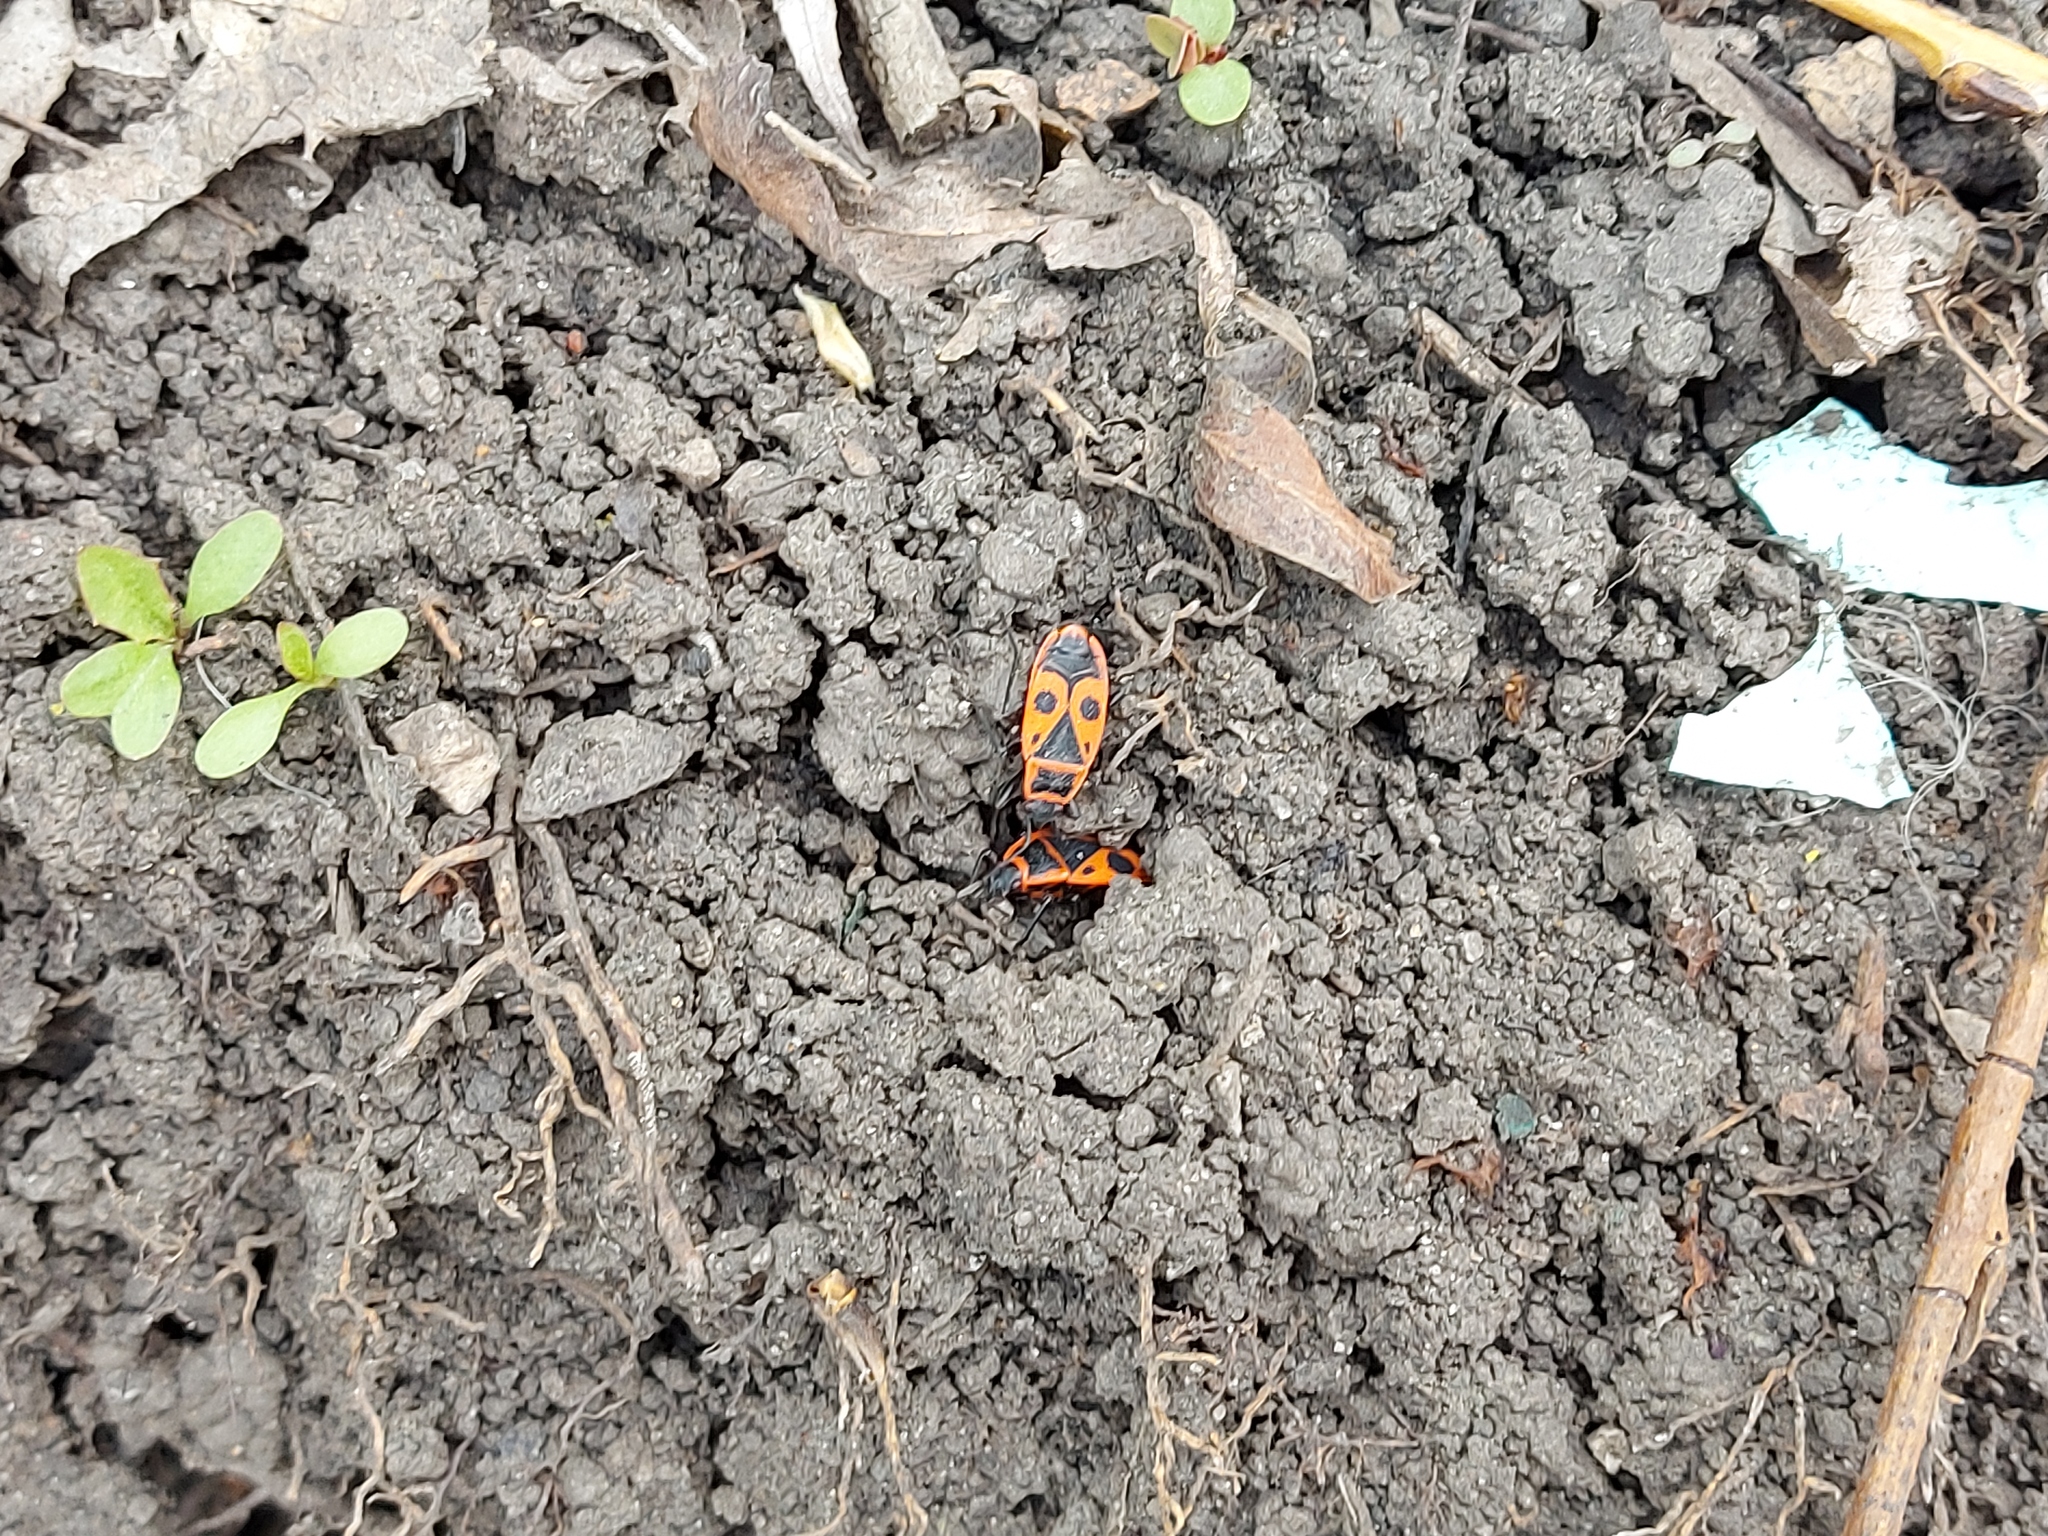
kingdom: Animalia
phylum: Arthropoda
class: Insecta
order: Hemiptera
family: Pyrrhocoridae
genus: Pyrrhocoris
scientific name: Pyrrhocoris apterus
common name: Firebug
